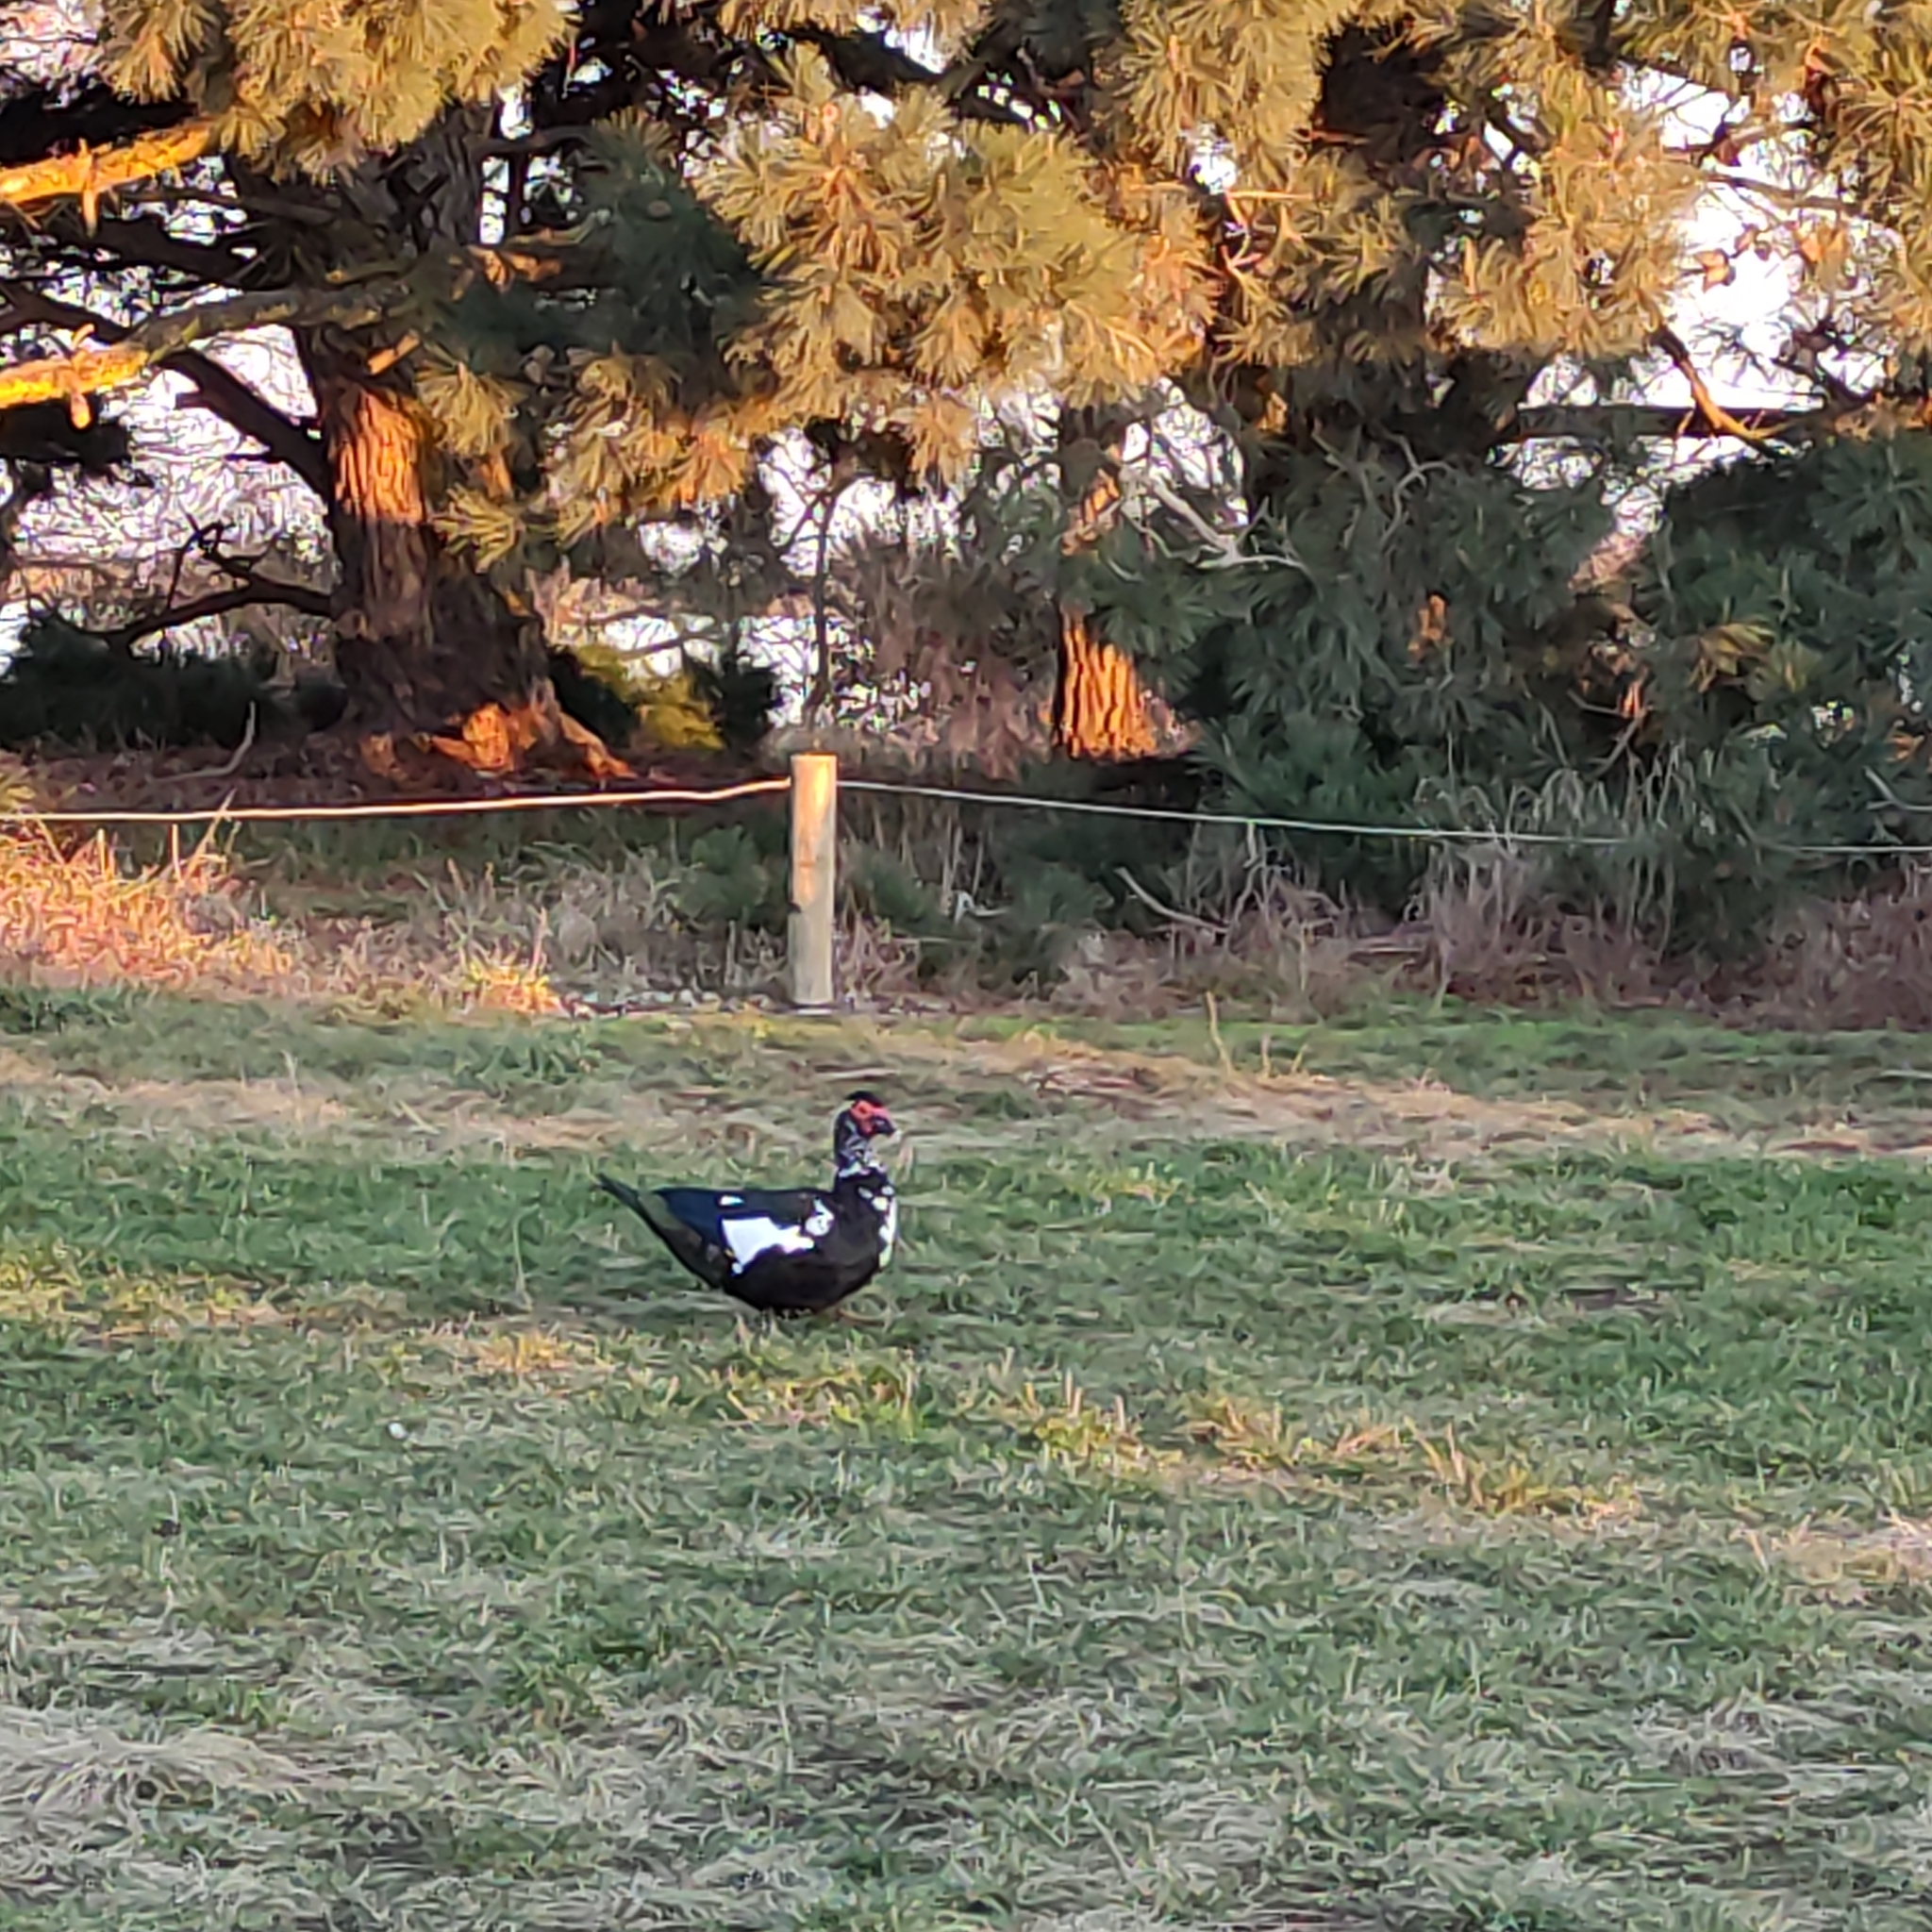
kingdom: Animalia
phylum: Chordata
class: Aves
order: Anseriformes
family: Anatidae
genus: Cairina
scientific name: Cairina moschata
